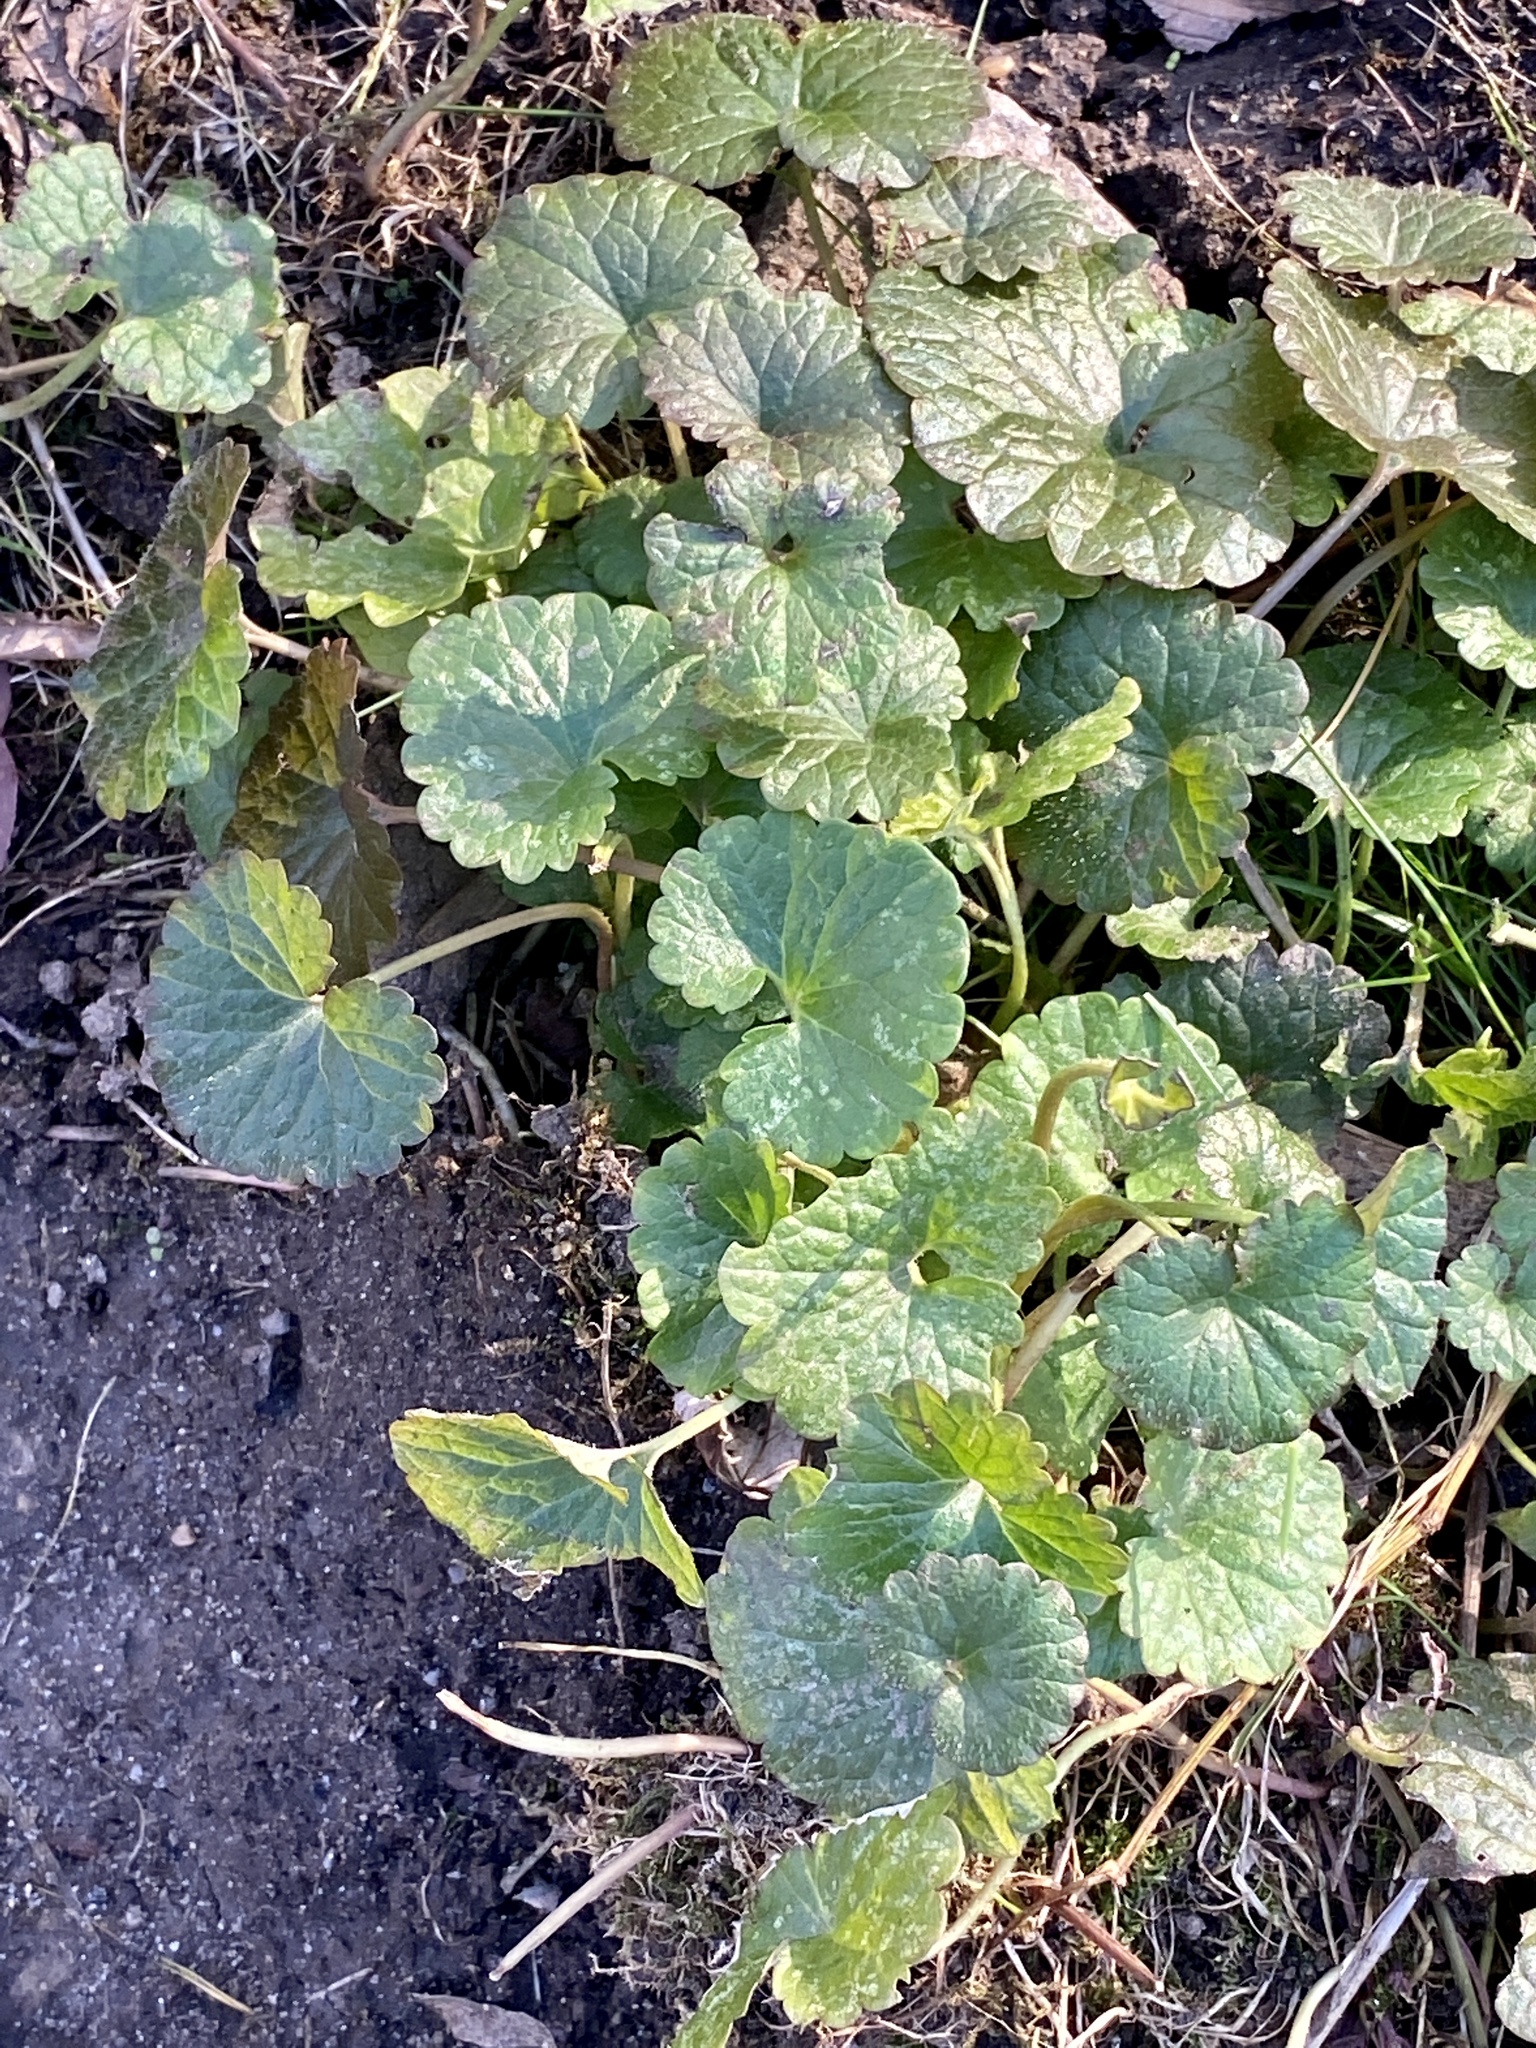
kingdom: Plantae
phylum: Tracheophyta
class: Magnoliopsida
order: Lamiales
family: Lamiaceae
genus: Glechoma
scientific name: Glechoma hederacea
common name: Ground ivy
